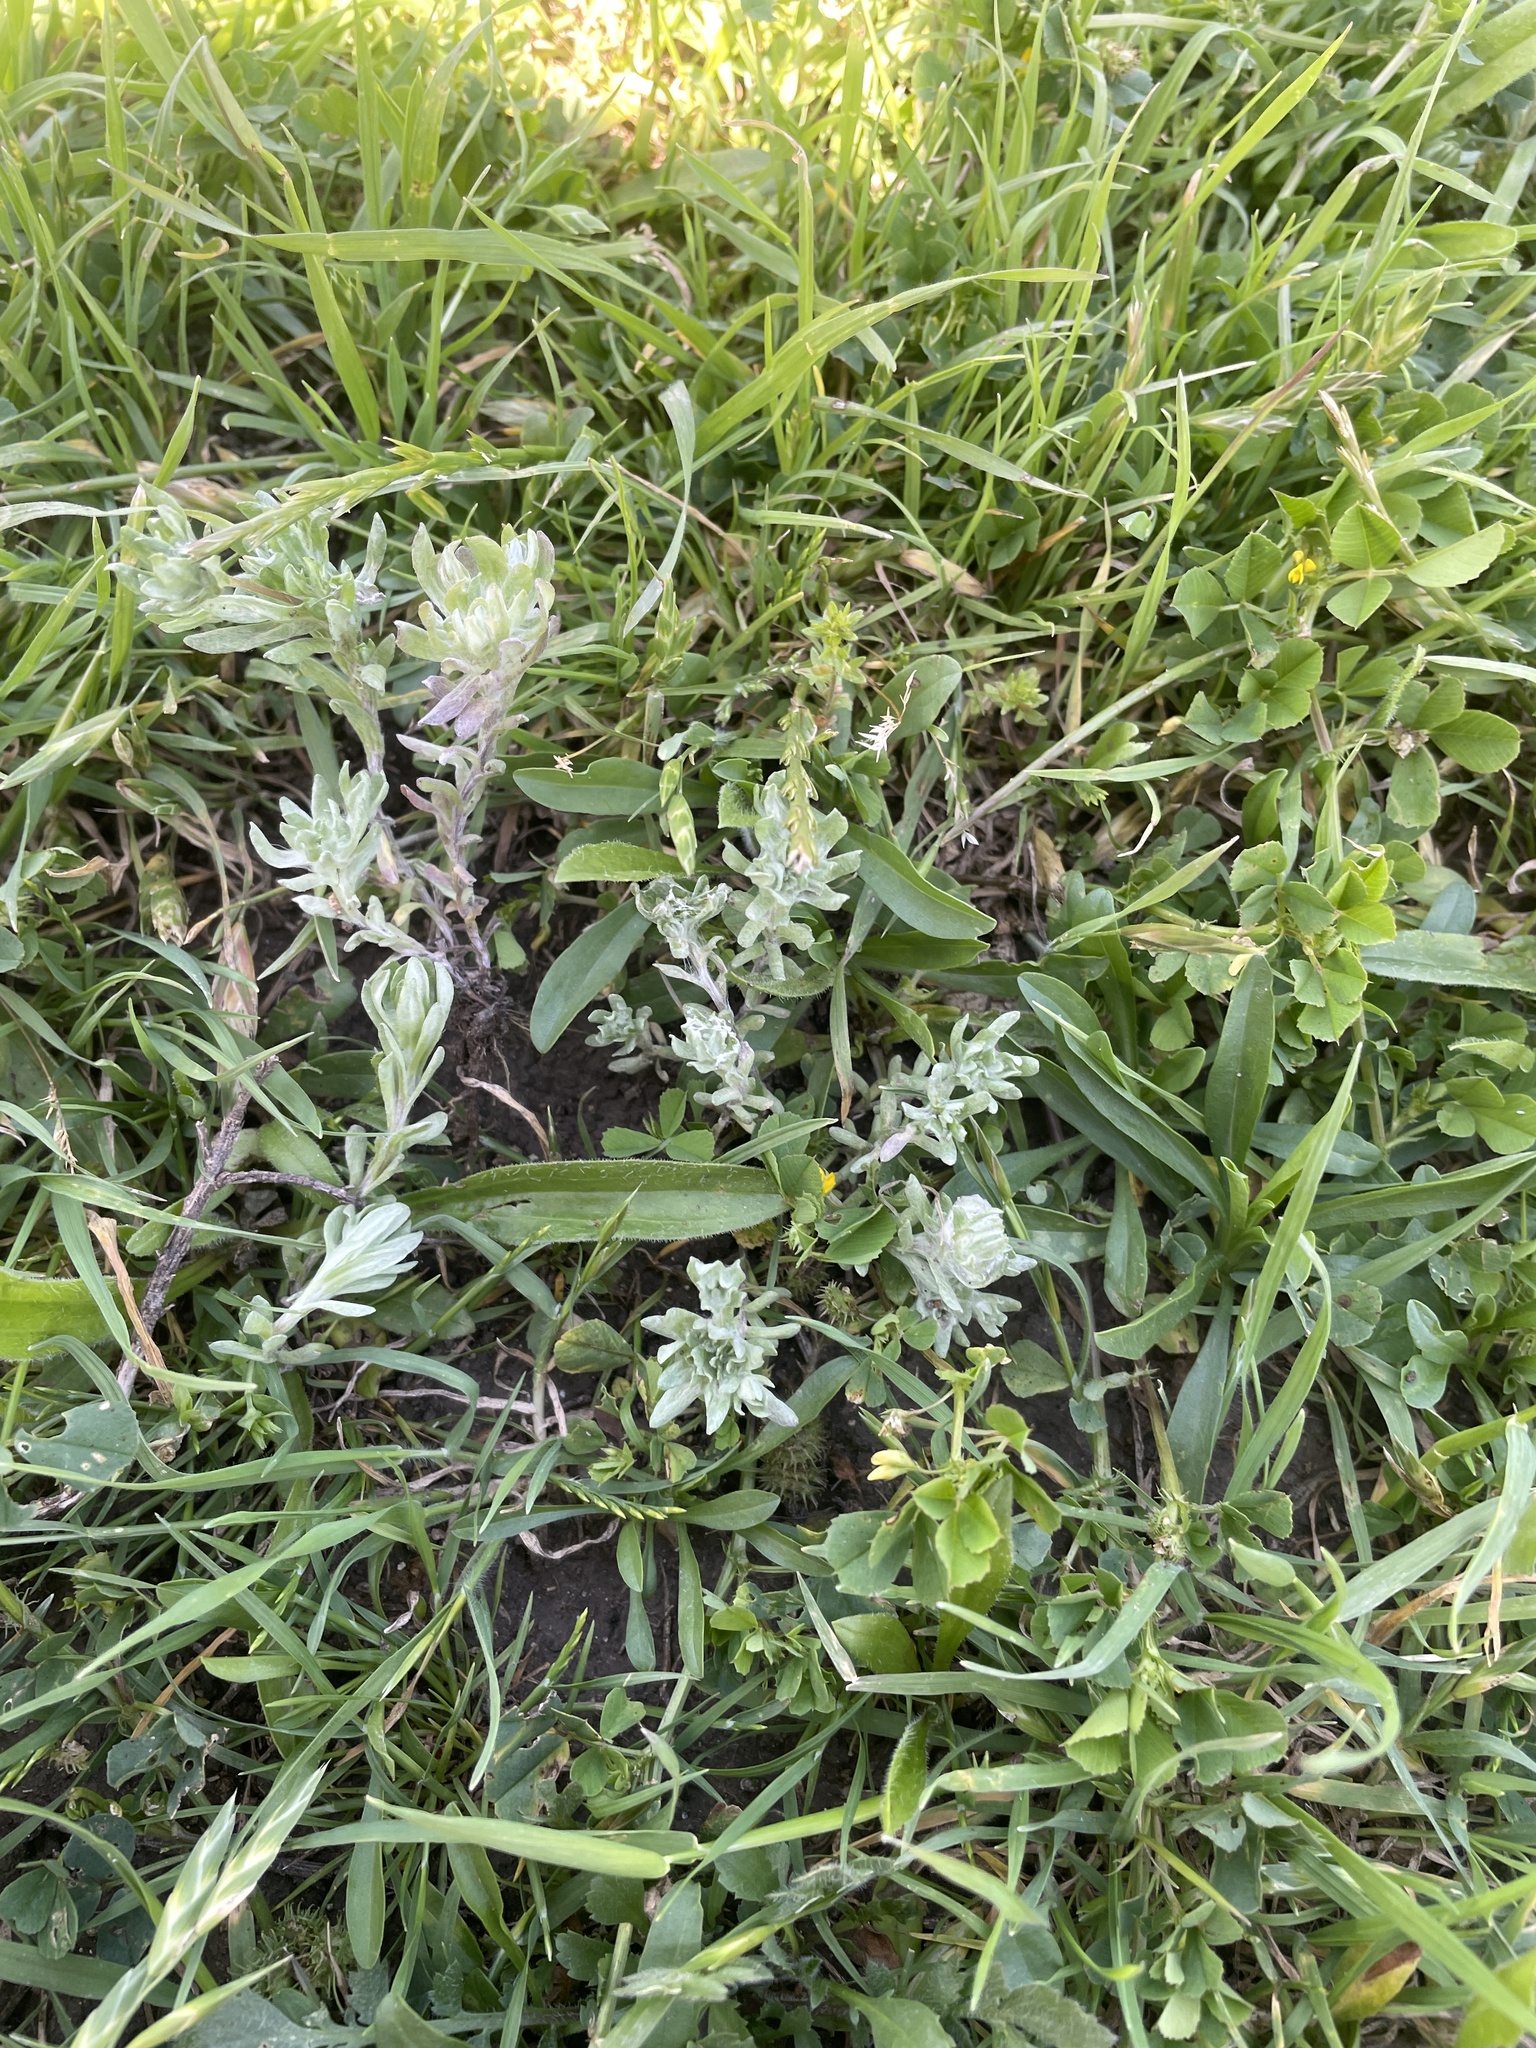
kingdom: Plantae
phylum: Tracheophyta
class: Magnoliopsida
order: Asterales
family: Asteraceae
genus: Diaperia
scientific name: Diaperia prolifera
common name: Big-head rabbit-tobacco
